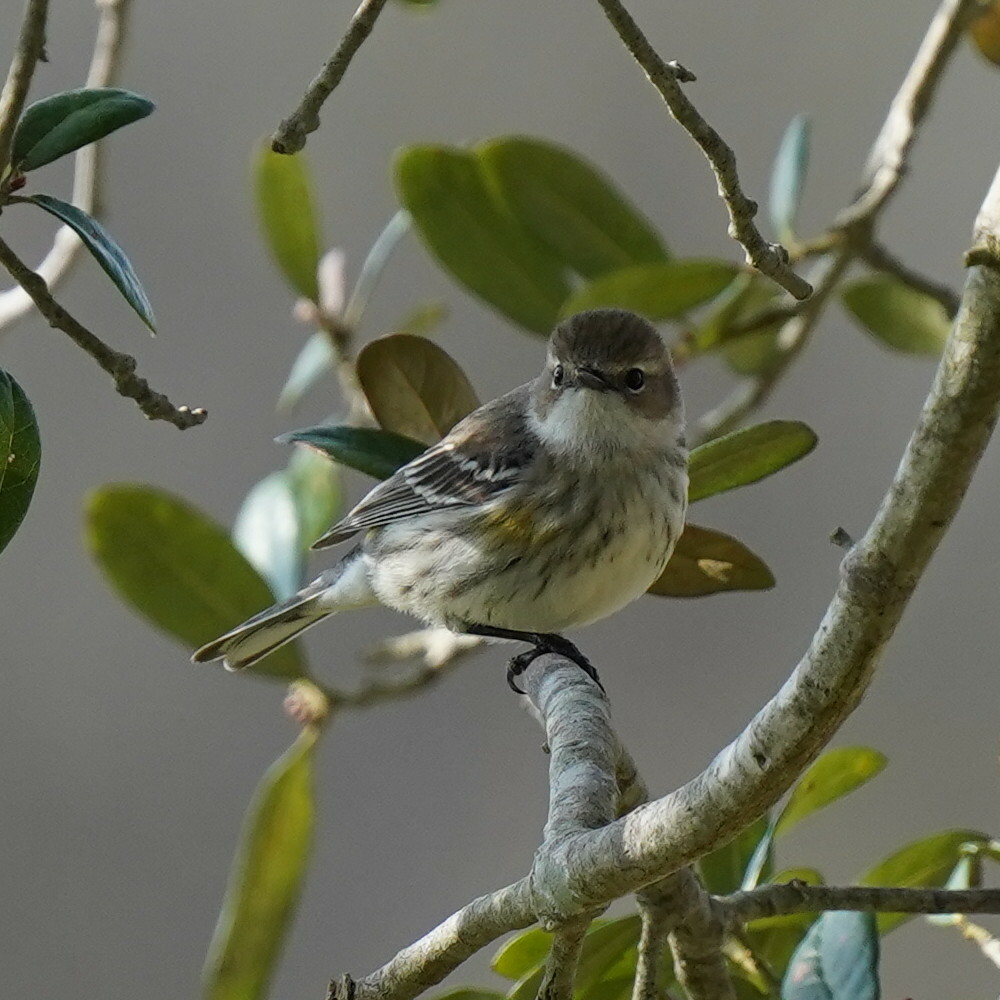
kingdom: Animalia
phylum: Chordata
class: Aves
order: Passeriformes
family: Parulidae
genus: Setophaga
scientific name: Setophaga coronata
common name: Myrtle warbler
